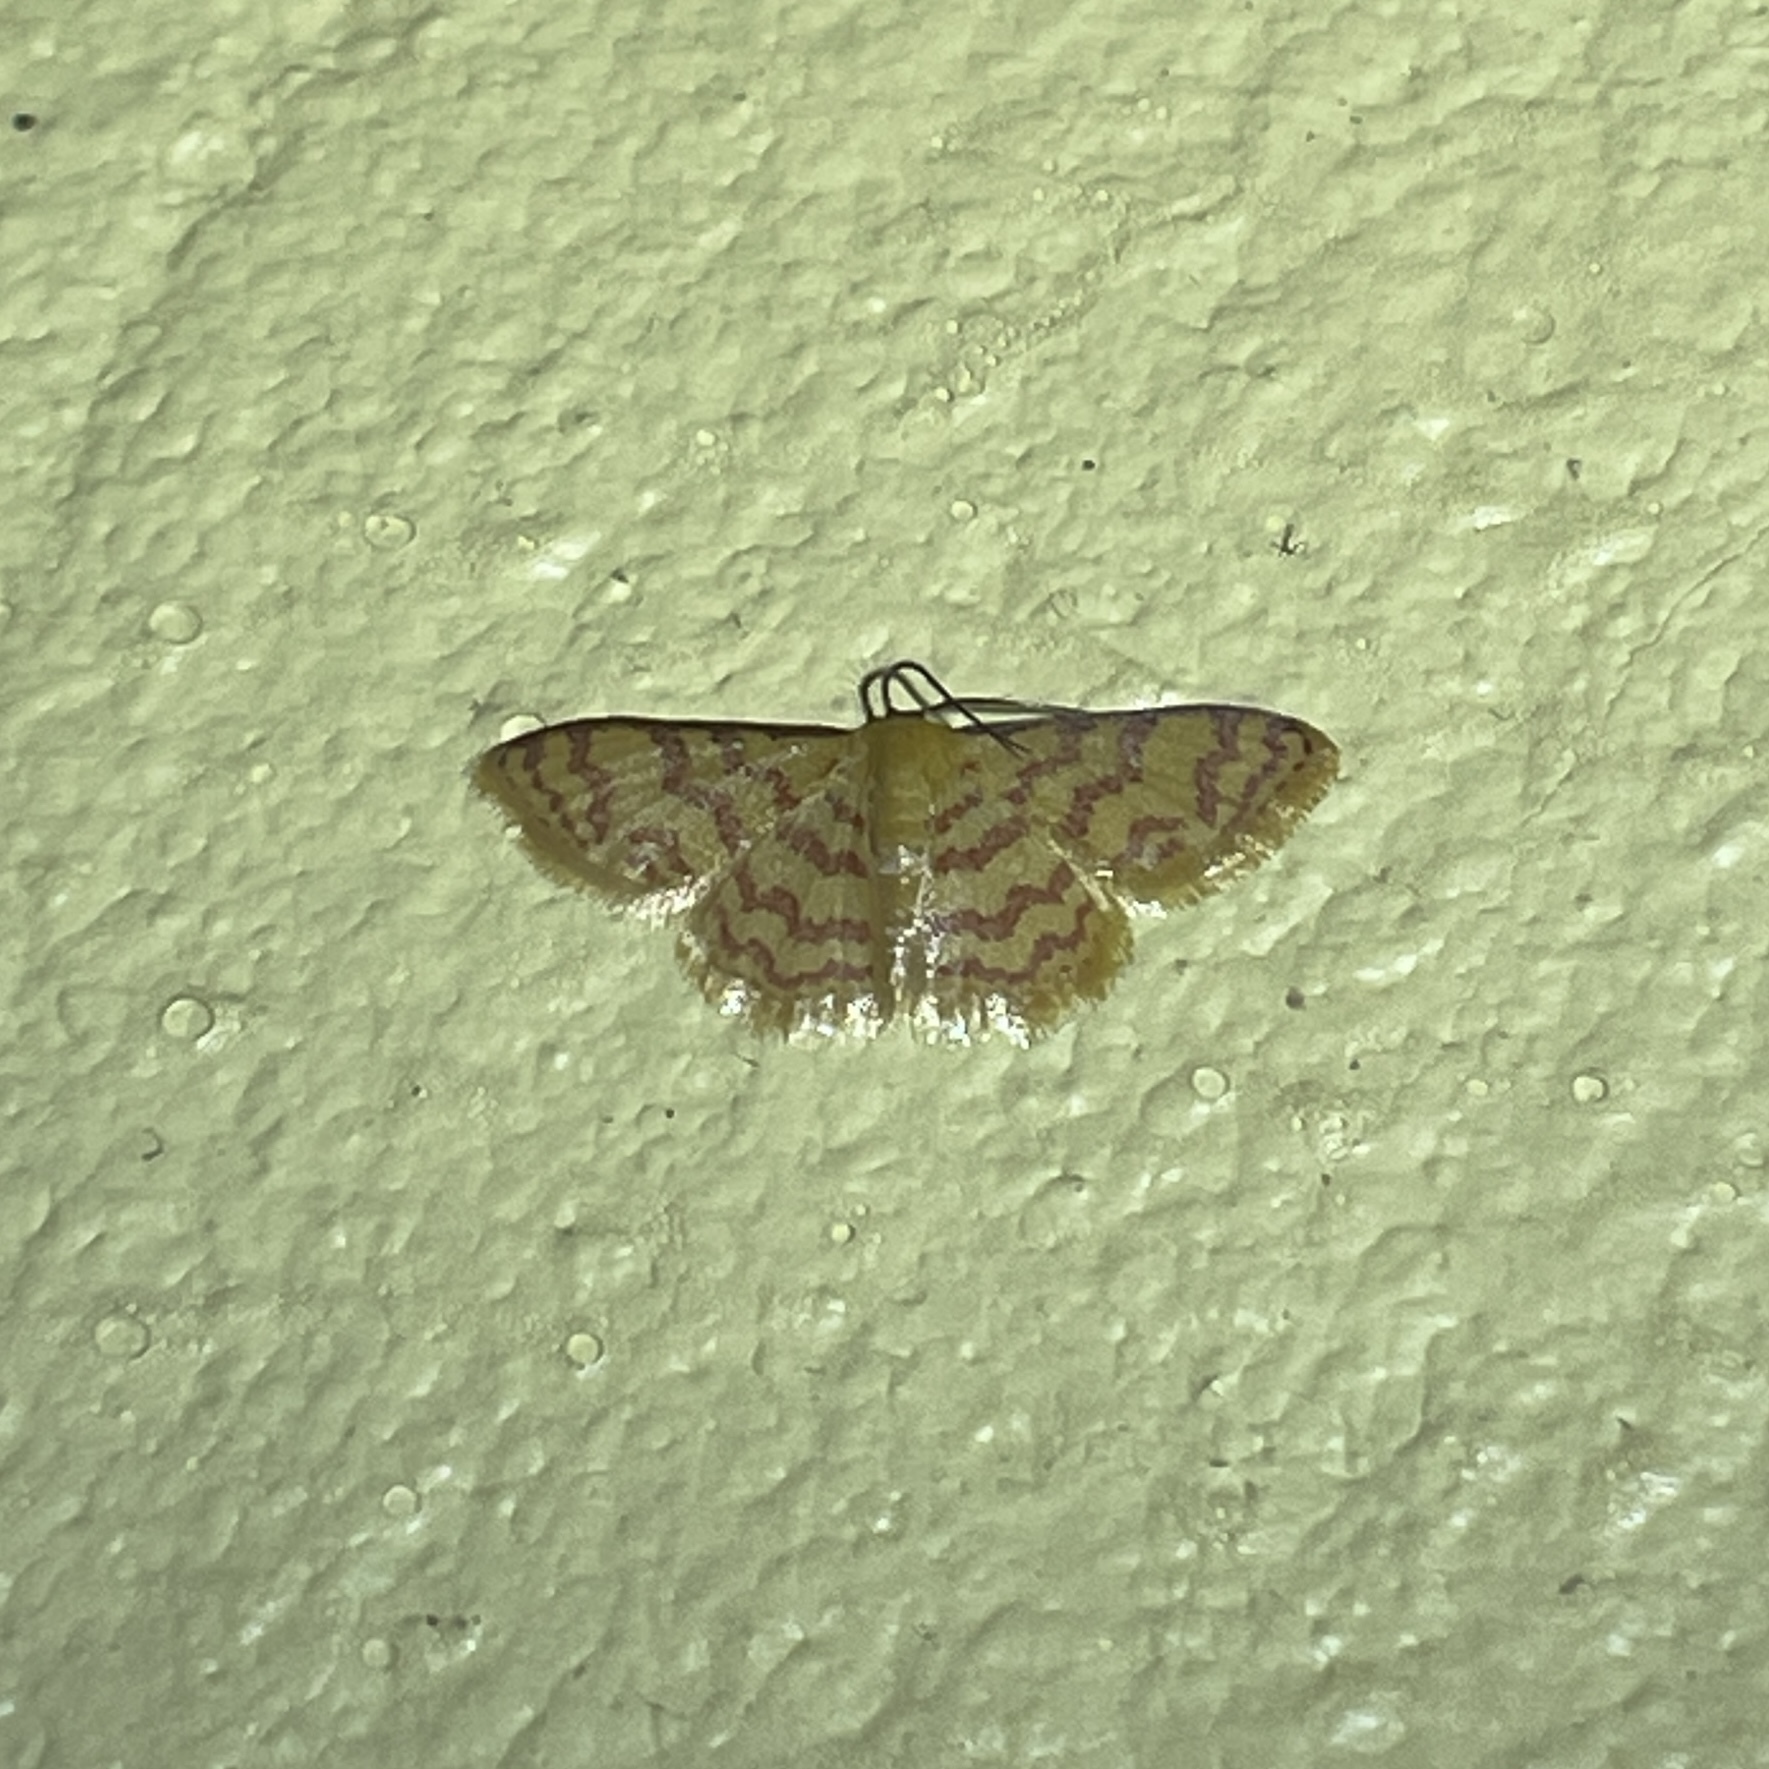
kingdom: Animalia
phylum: Arthropoda
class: Insecta
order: Lepidoptera
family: Geometridae
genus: Tricentrogyna
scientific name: Tricentrogyna deportata
